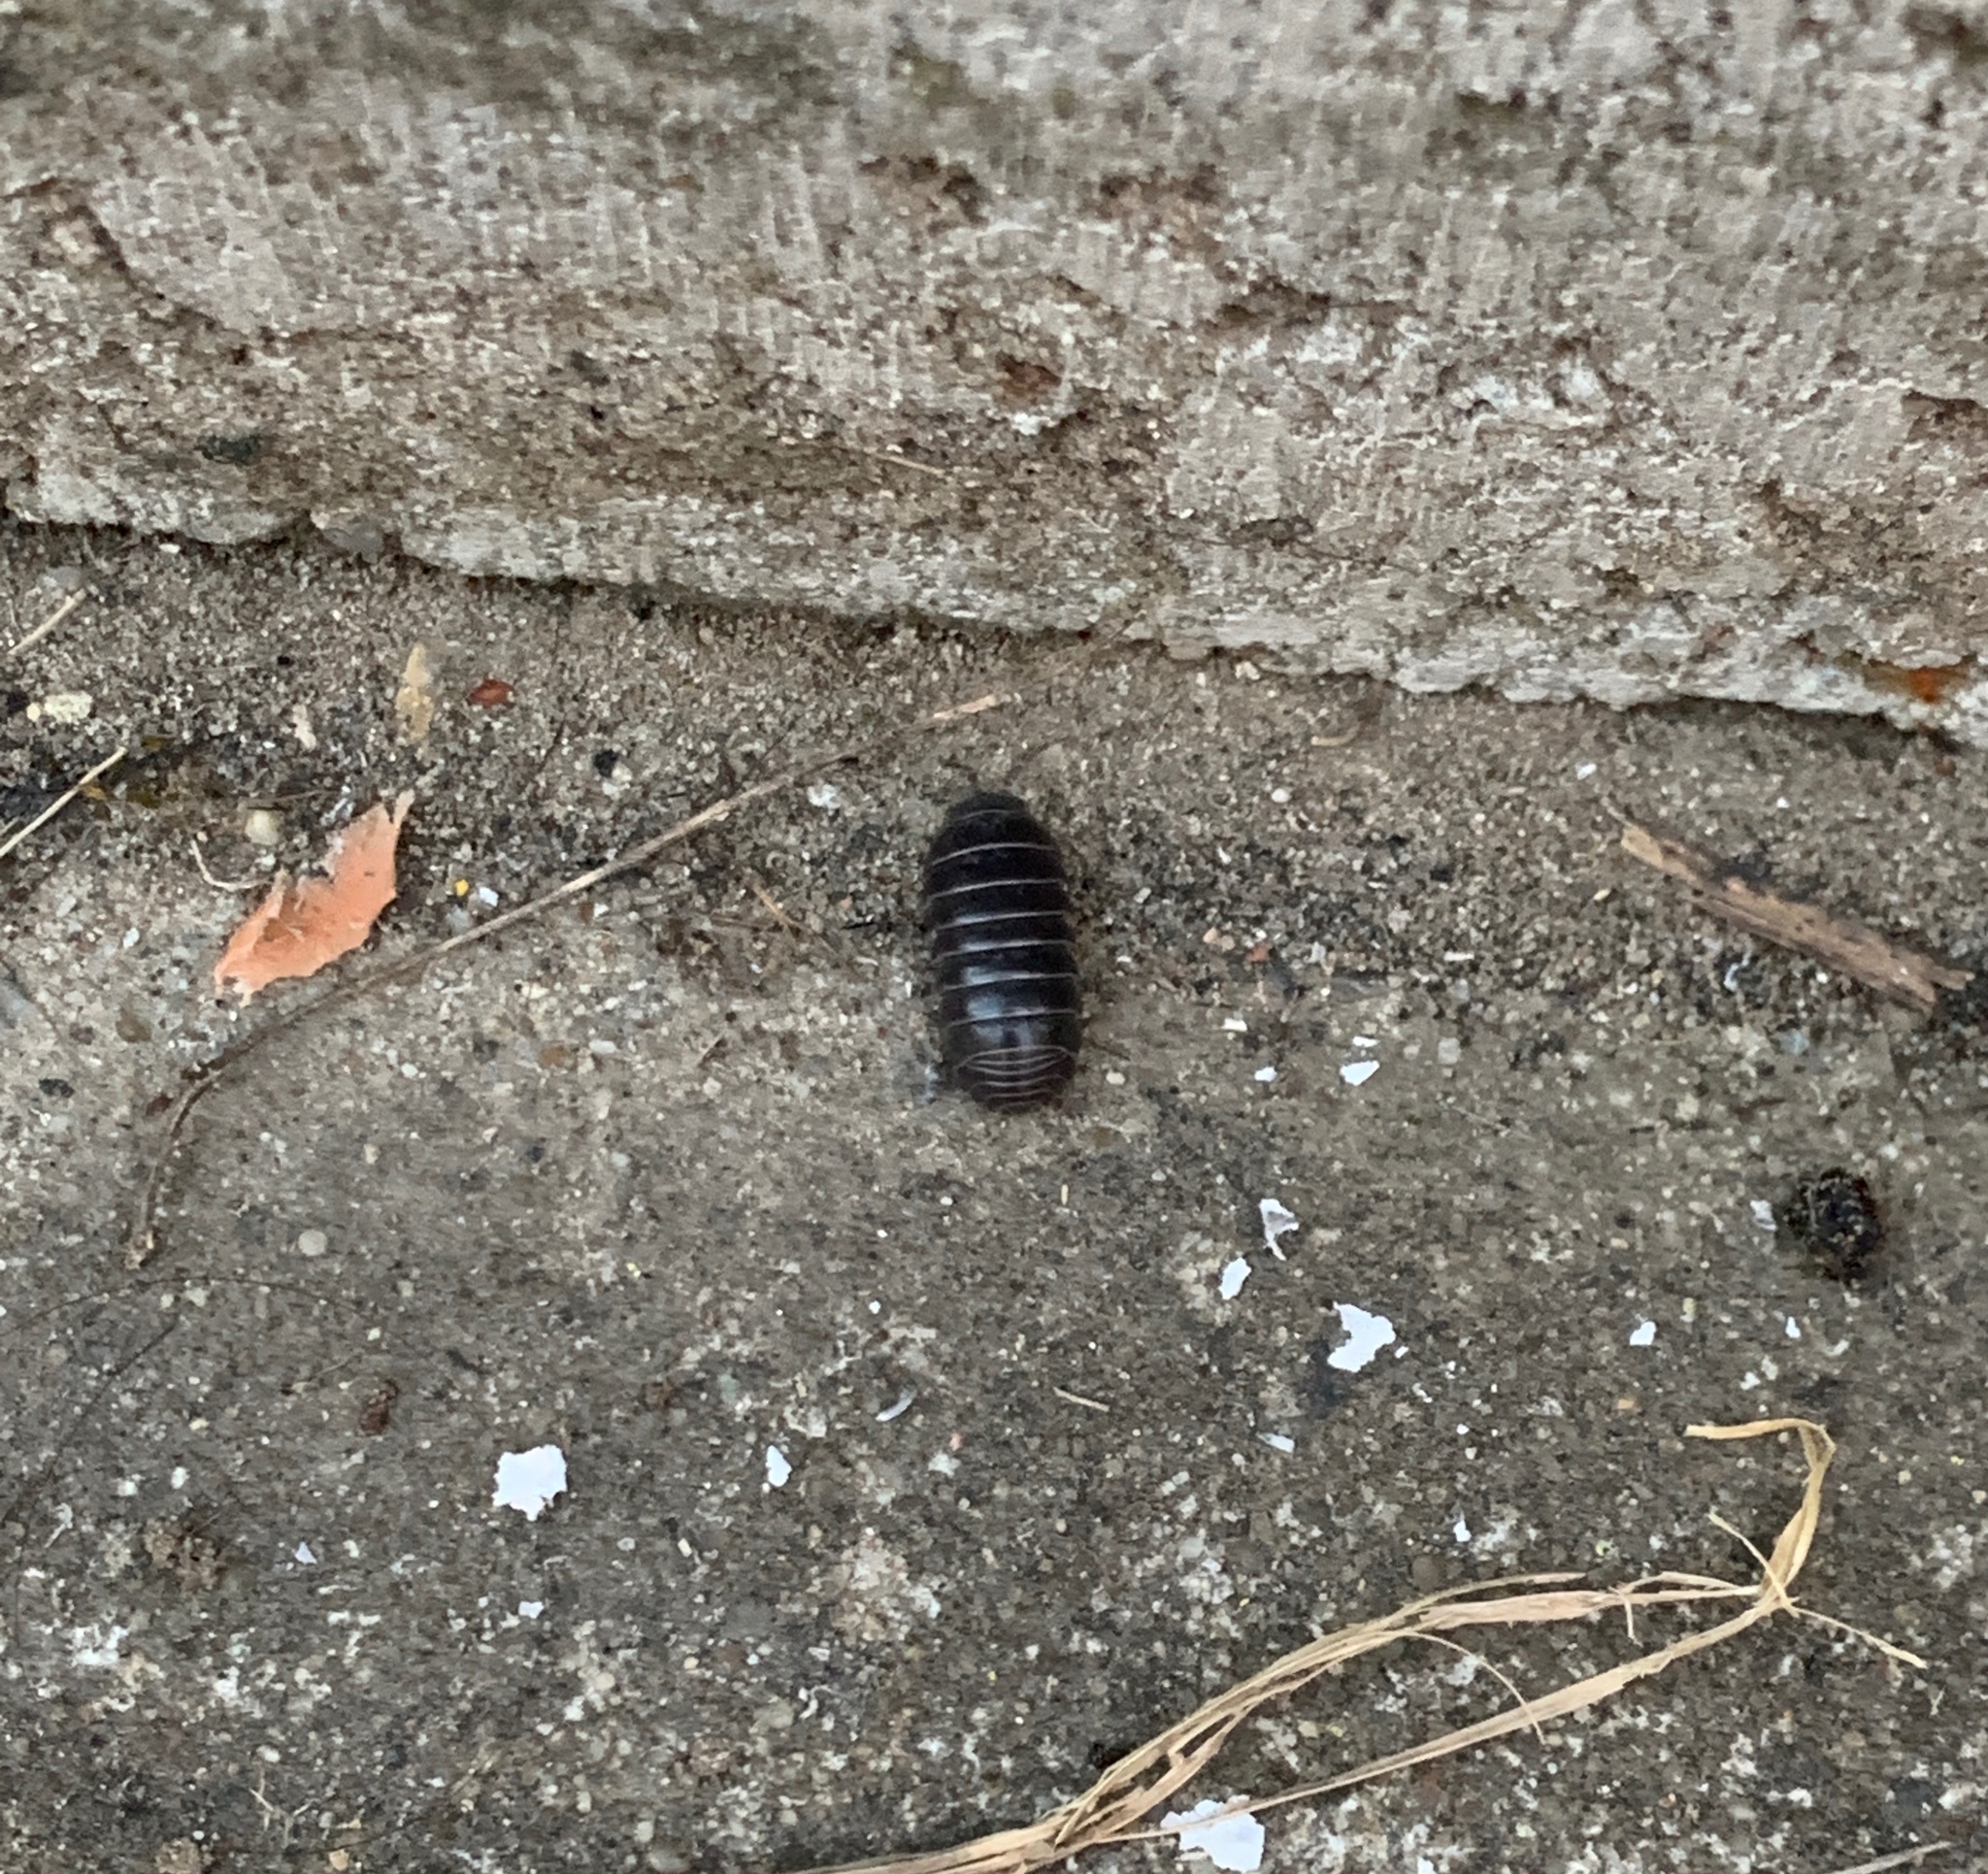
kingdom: Animalia
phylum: Arthropoda
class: Malacostraca
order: Isopoda
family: Armadillidiidae
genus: Armadillidium
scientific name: Armadillidium vulgare
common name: Common pill woodlouse
